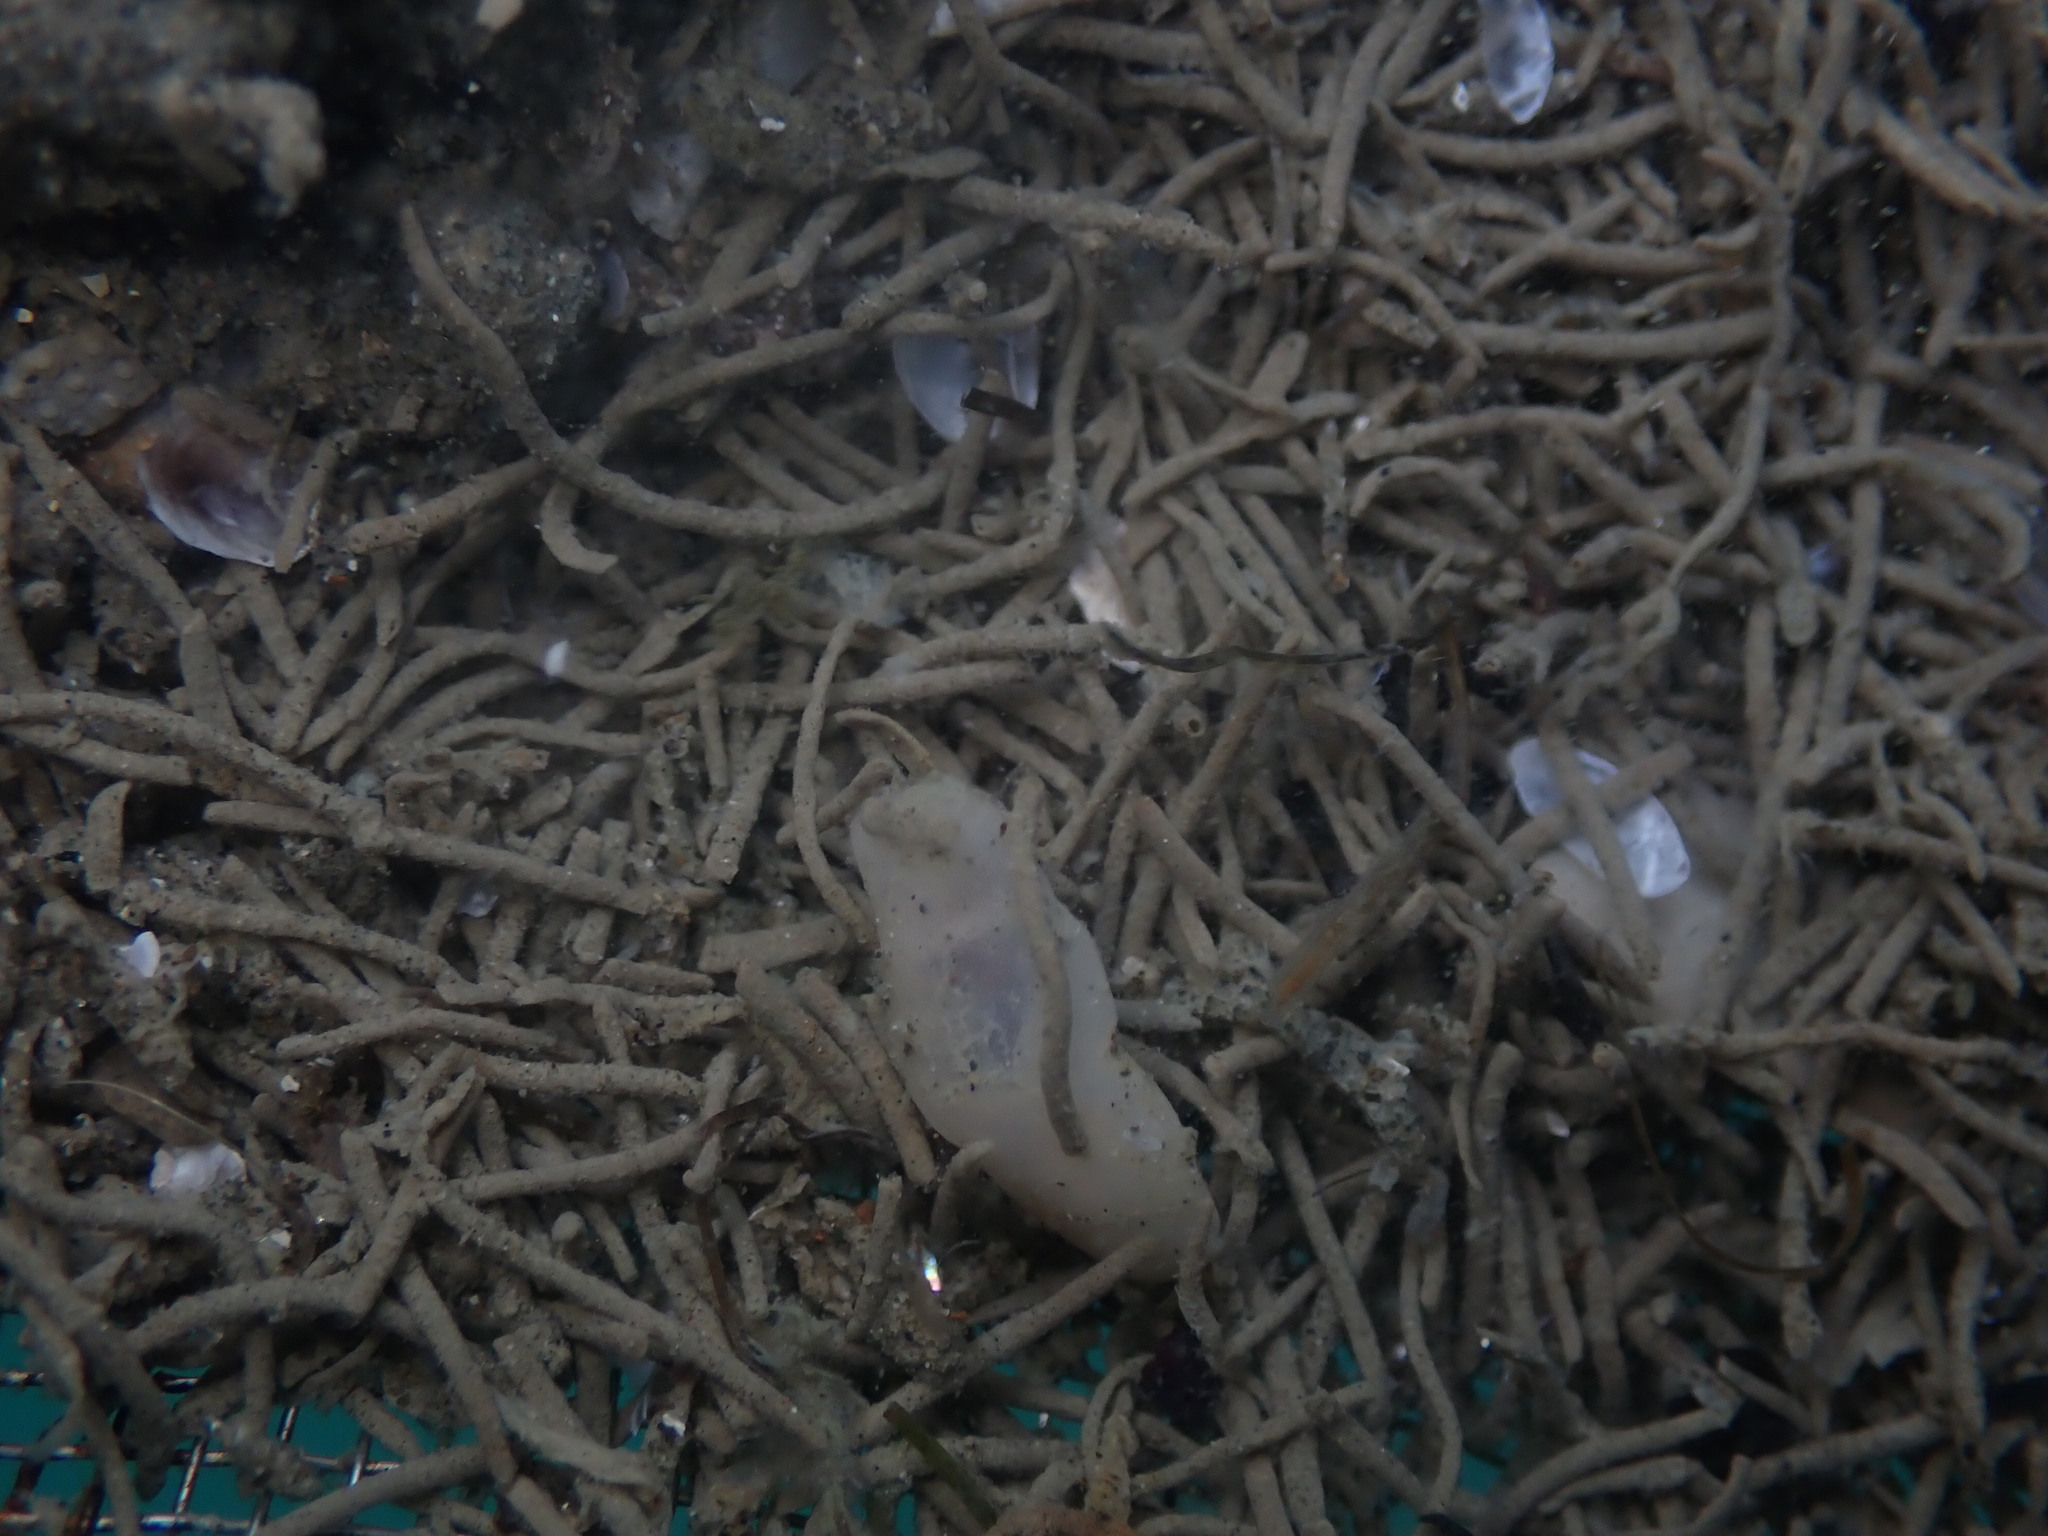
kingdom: Animalia
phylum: Mollusca
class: Gastropoda
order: Cephalaspidea
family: Philinidae
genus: Philine
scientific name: Philine
